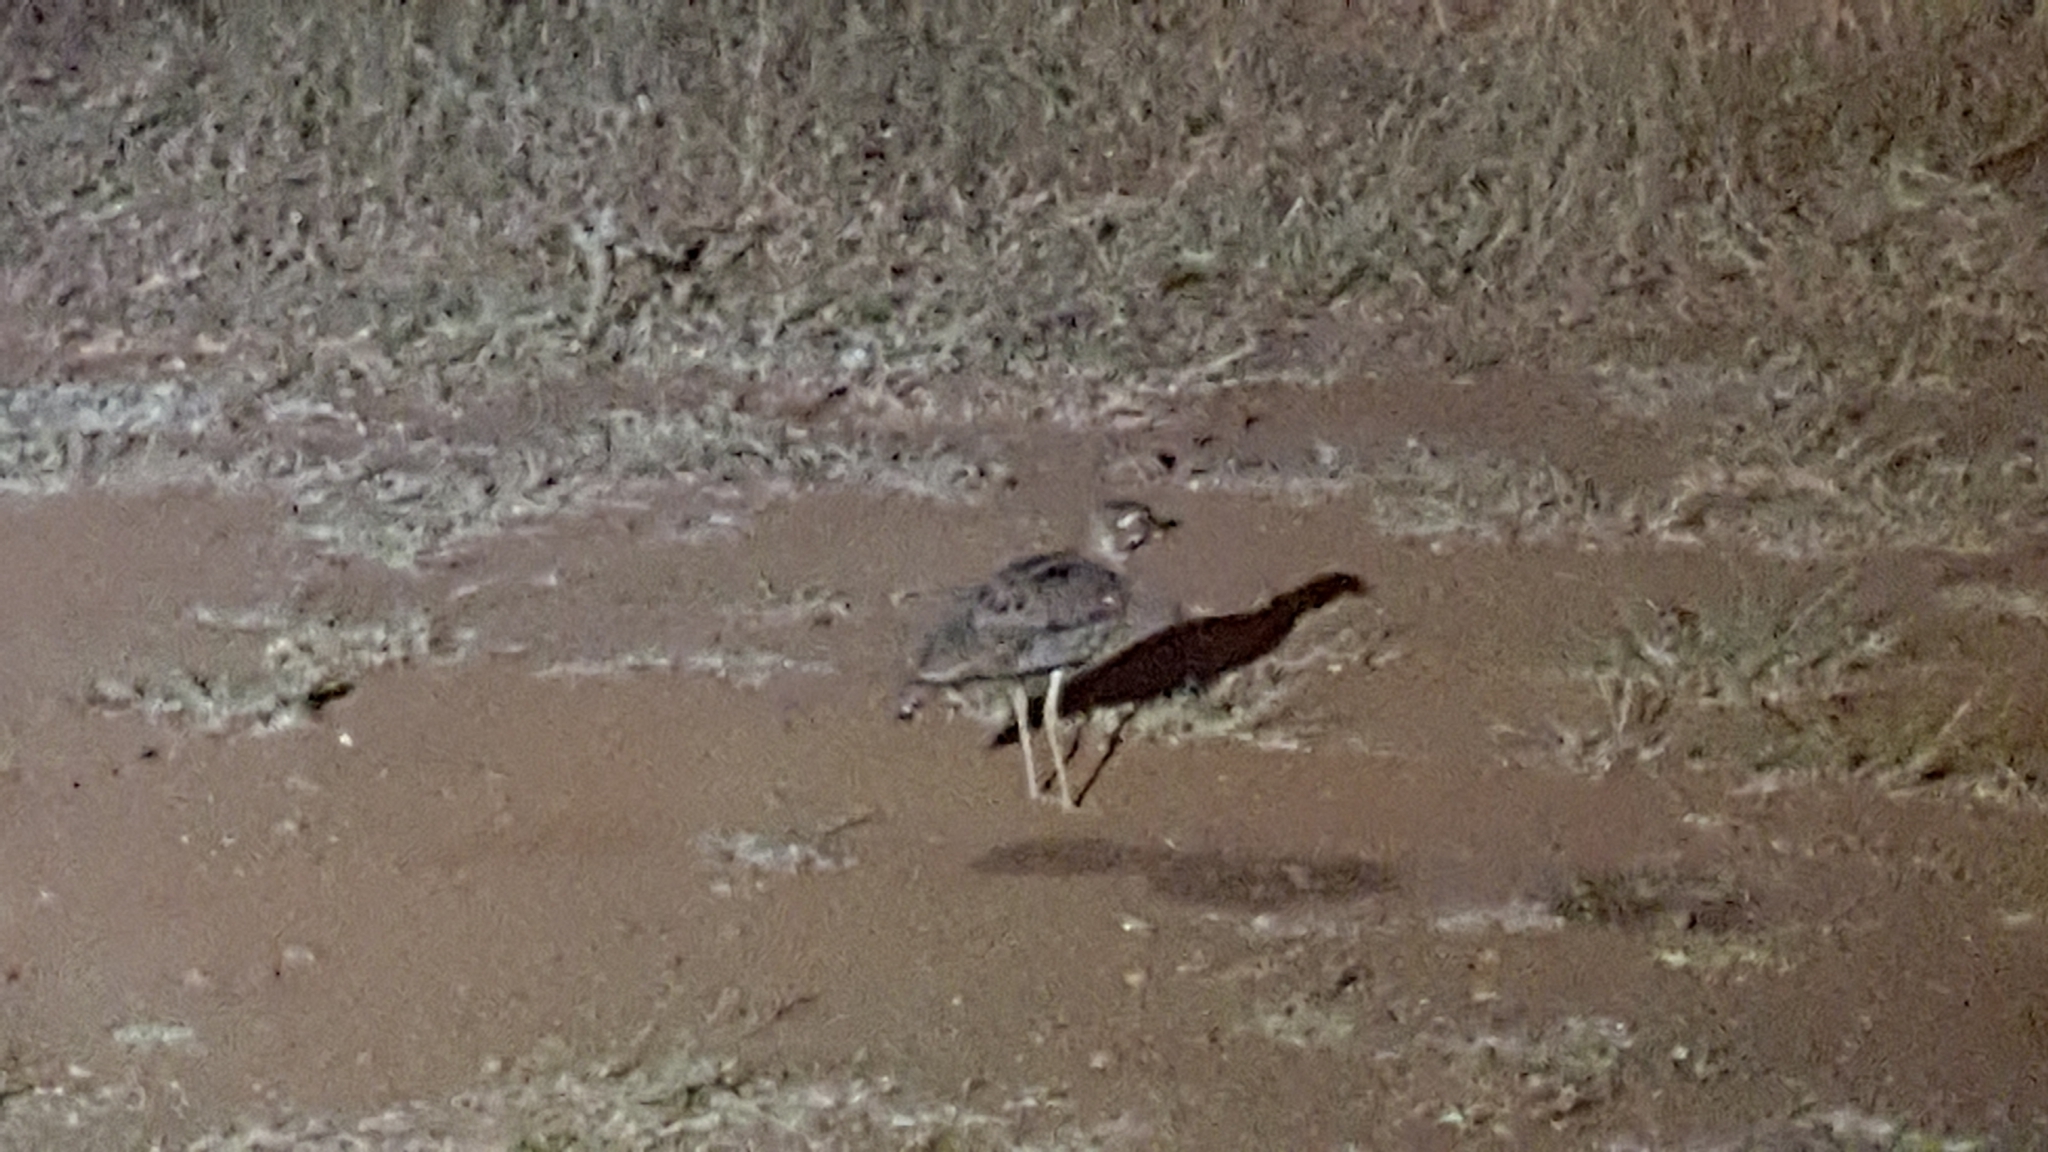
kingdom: Animalia
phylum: Chordata
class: Aves
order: Charadriiformes
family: Burhinidae
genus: Burhinus
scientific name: Burhinus vermiculatus
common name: Water thick-knee
